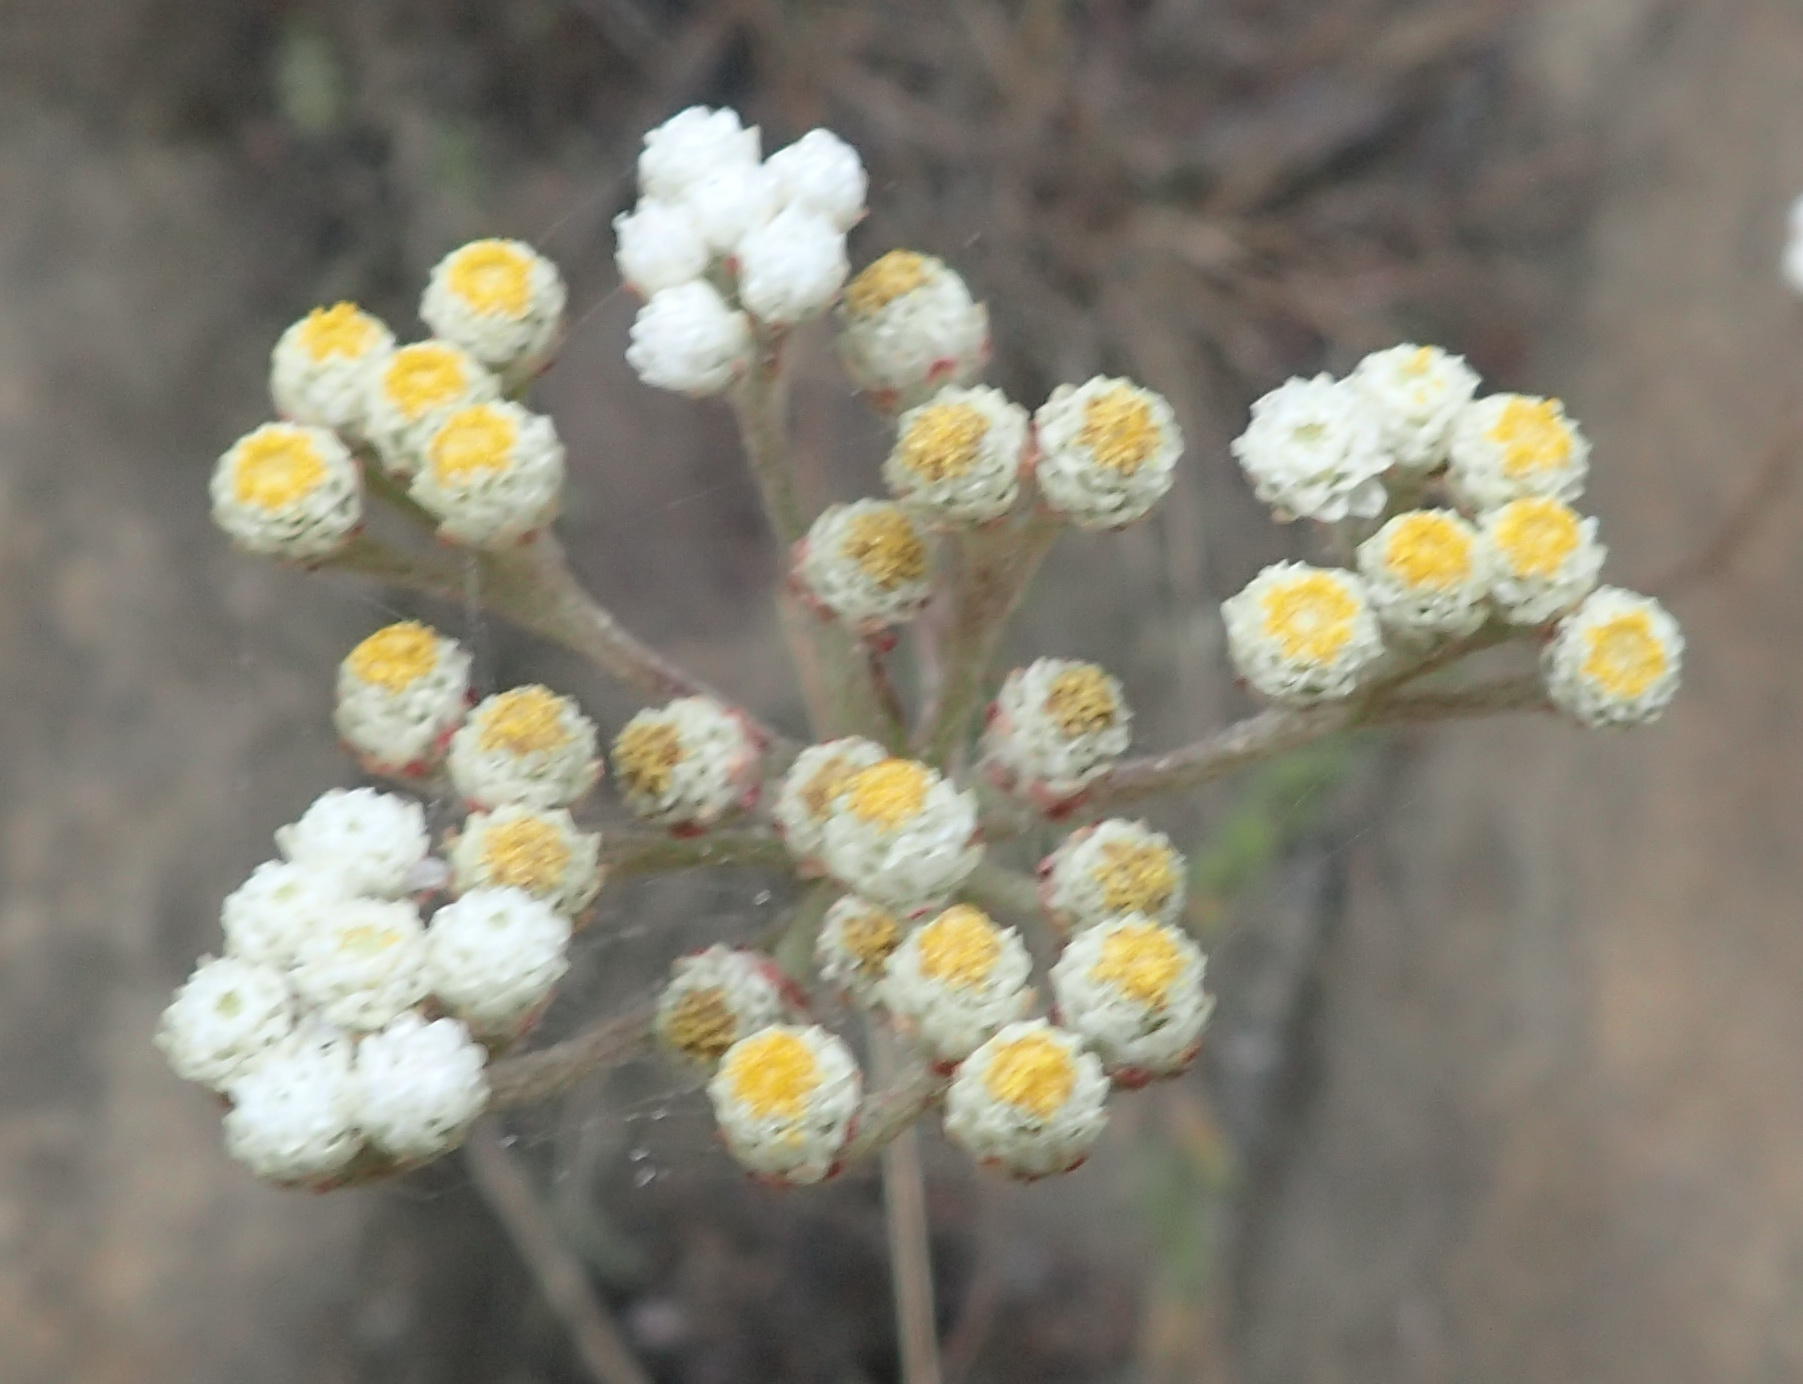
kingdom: Plantae
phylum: Tracheophyta
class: Magnoliopsida
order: Asterales
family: Asteraceae
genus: Helichrysum
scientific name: Helichrysum felinum
